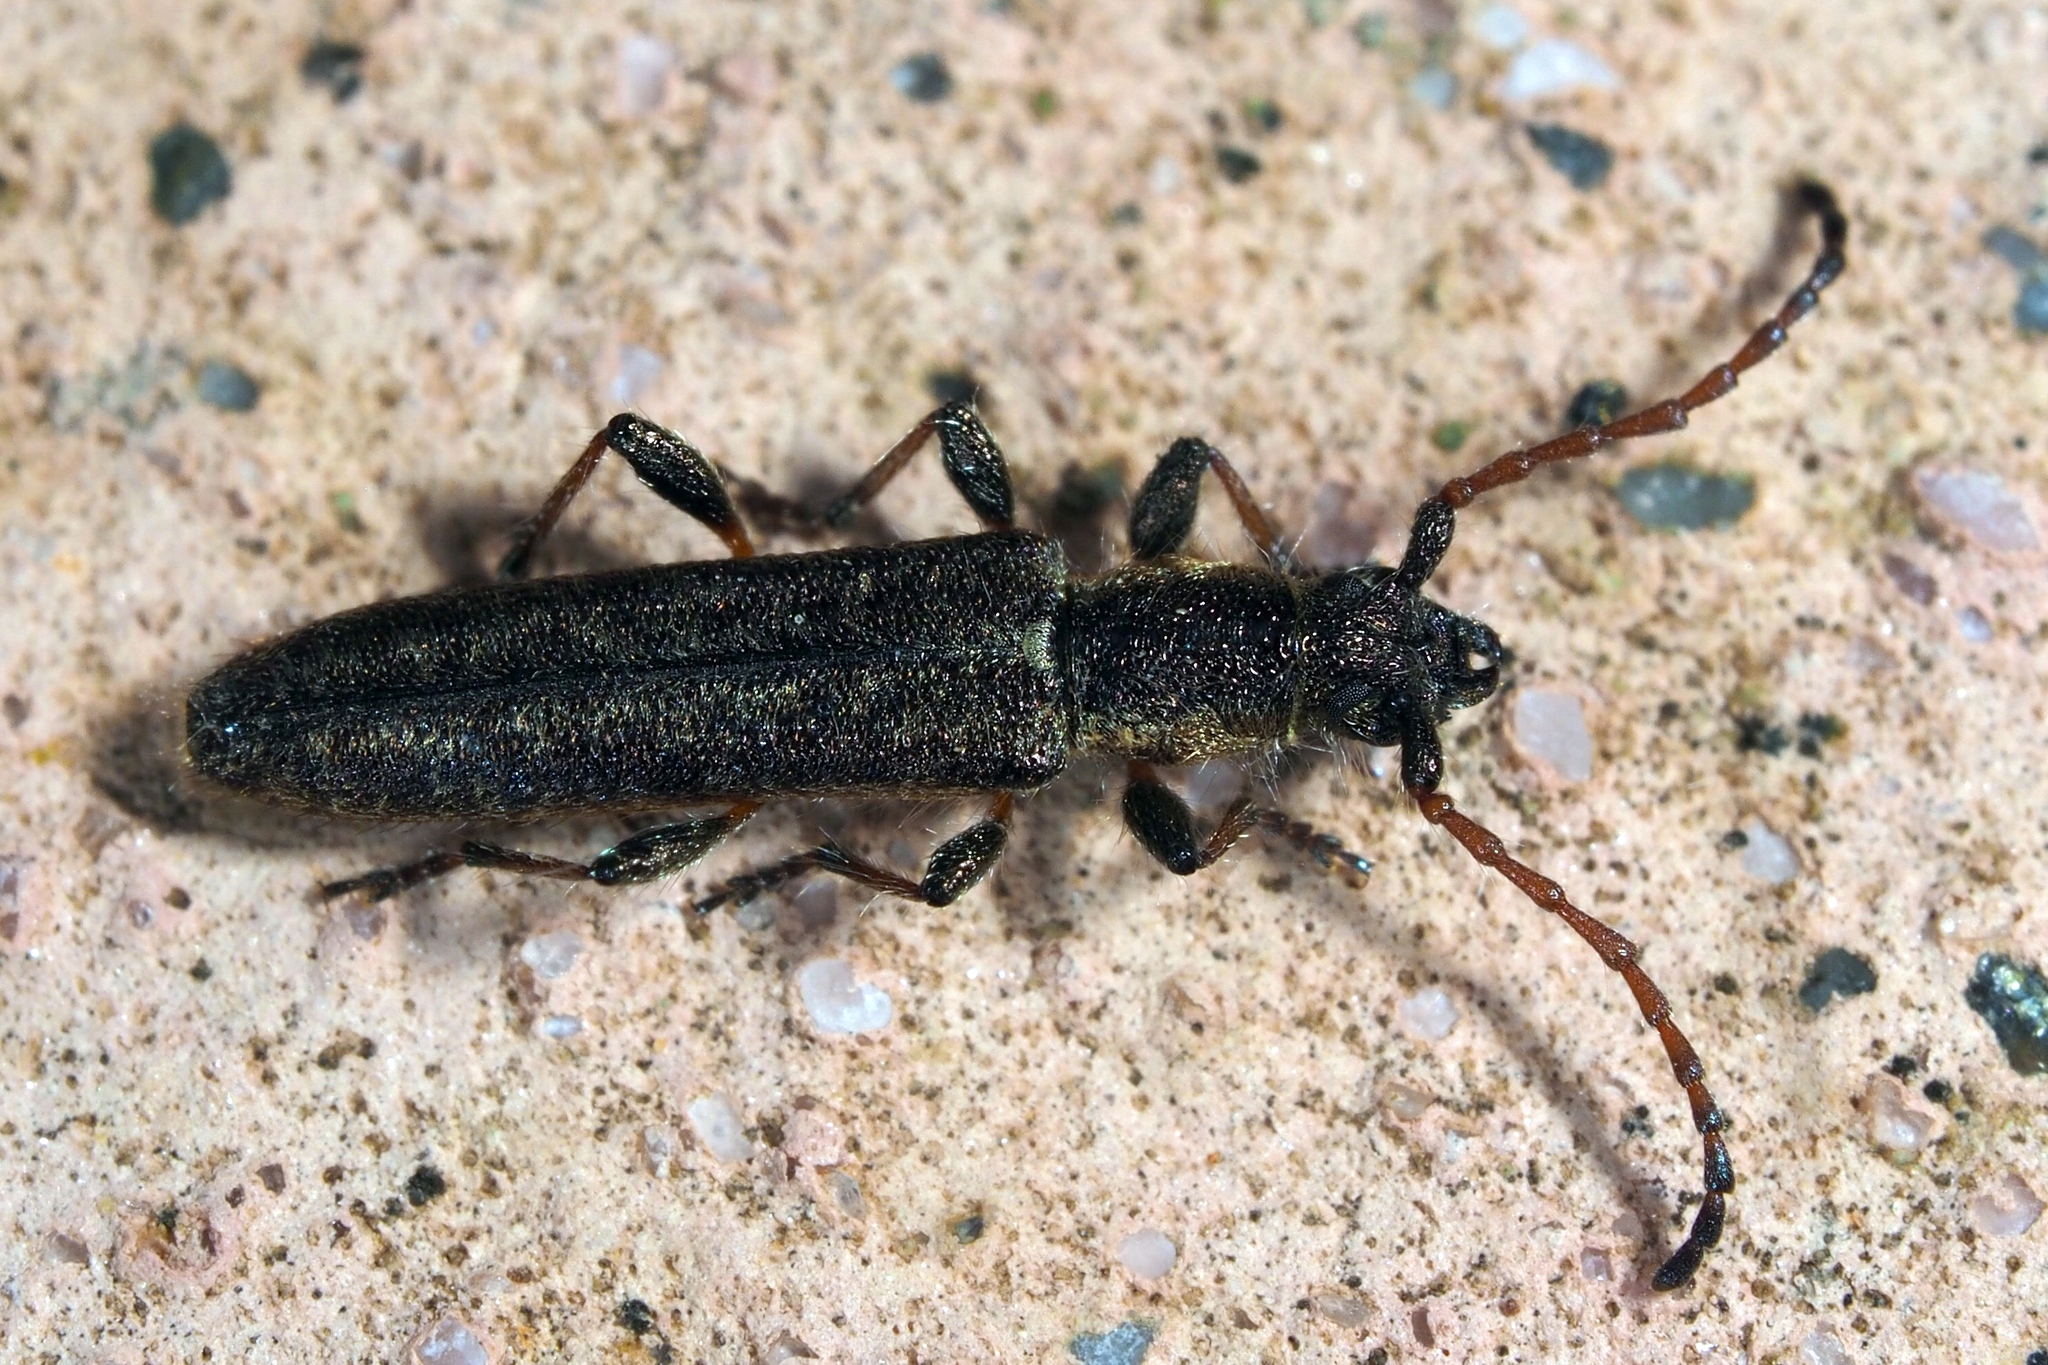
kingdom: Animalia
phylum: Arthropoda
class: Insecta
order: Coleoptera
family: Cerambycidae
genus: Deilus
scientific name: Deilus fugax
